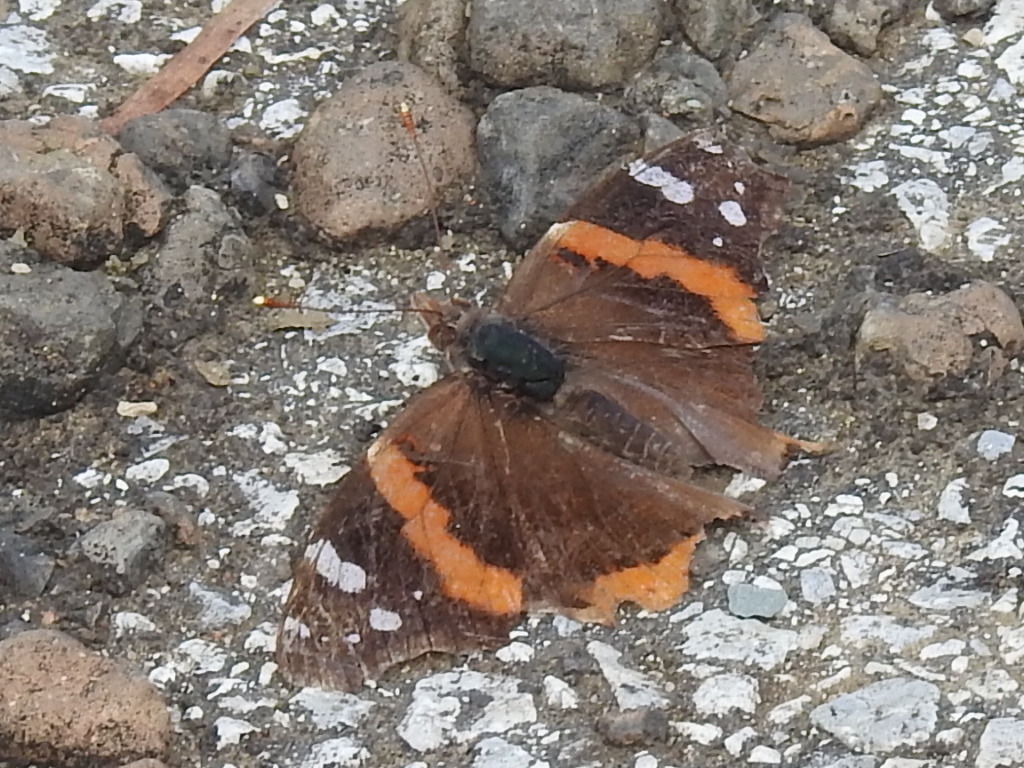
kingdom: Animalia
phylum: Arthropoda
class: Insecta
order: Lepidoptera
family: Nymphalidae
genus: Vanessa
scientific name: Vanessa atalanta
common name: Red admiral
